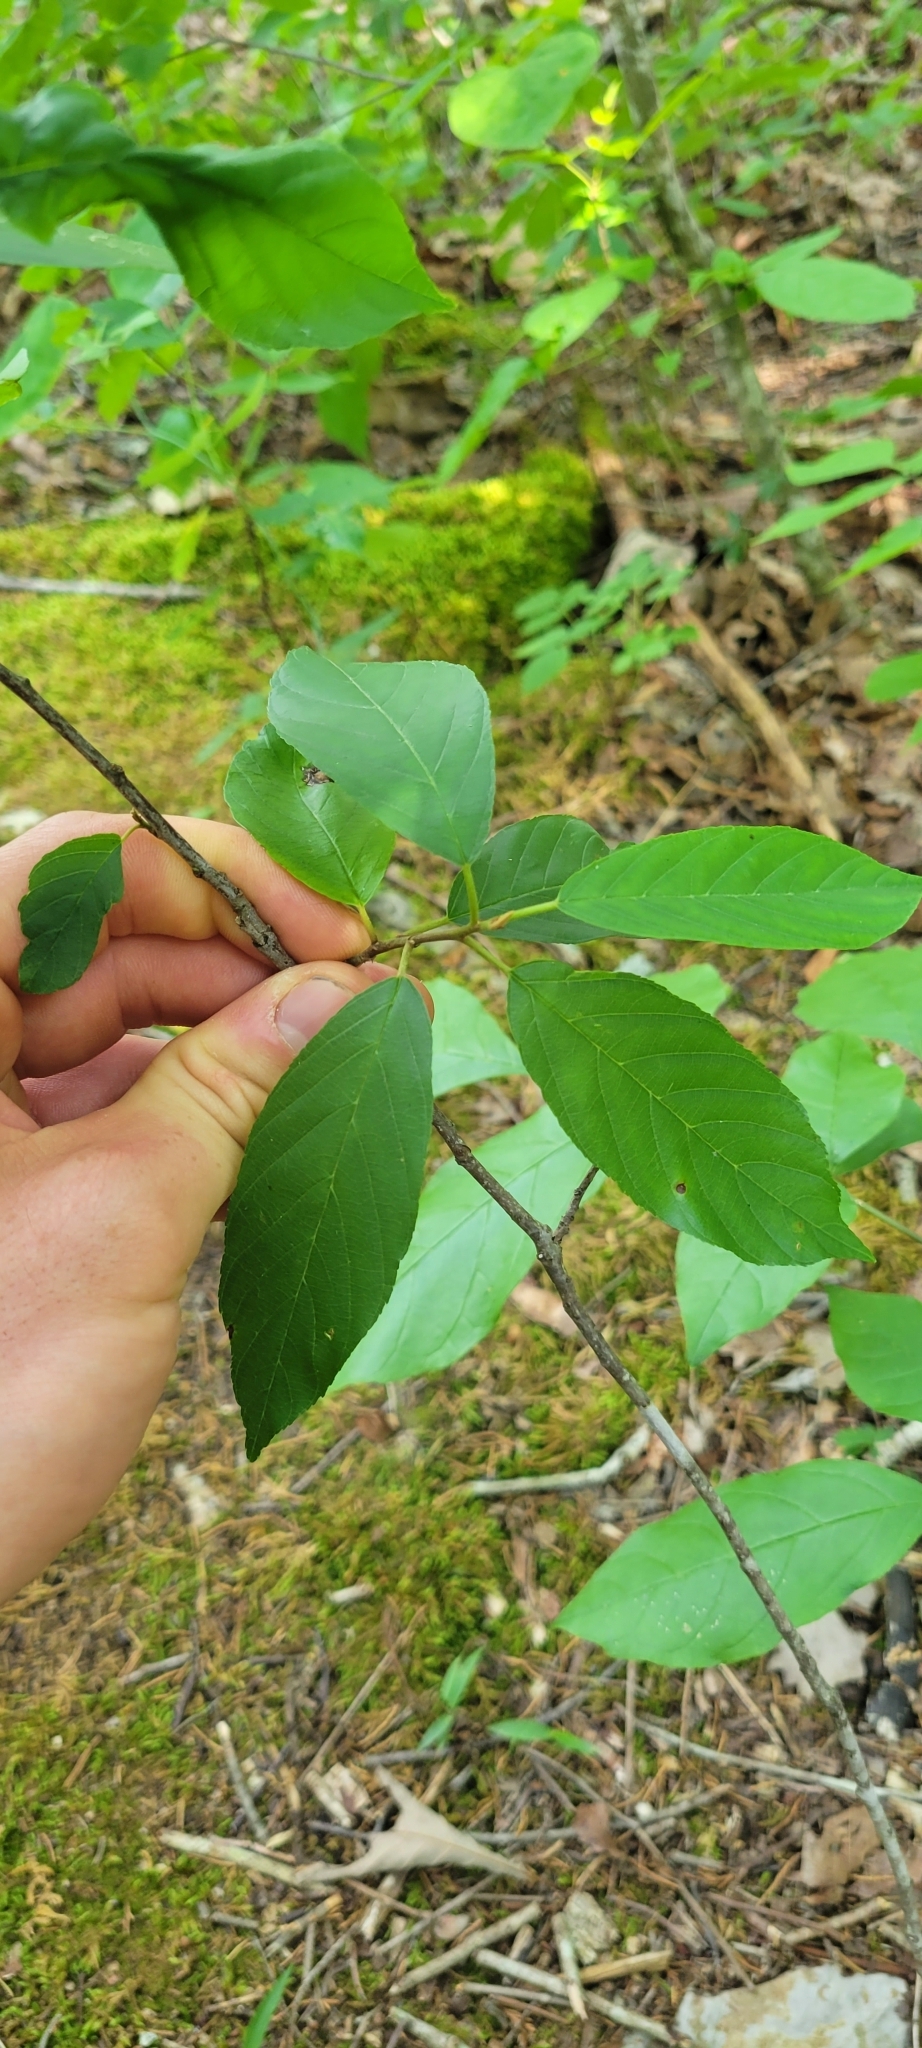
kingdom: Plantae
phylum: Tracheophyta
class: Magnoliopsida
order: Rosales
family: Rhamnaceae
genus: Frangula
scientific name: Frangula caroliniana
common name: Carolina buckthorn
